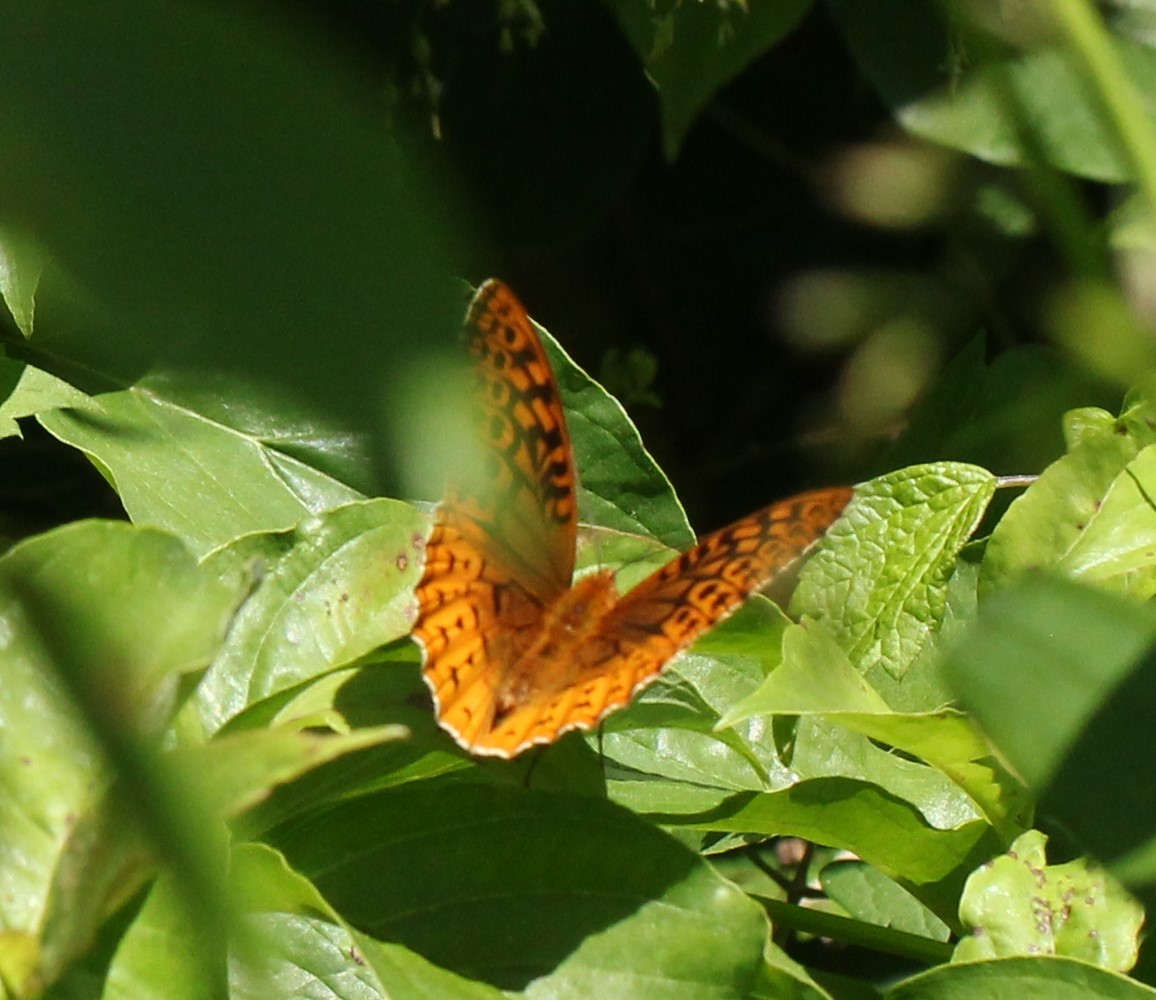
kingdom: Animalia
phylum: Arthropoda
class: Insecta
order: Lepidoptera
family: Nymphalidae
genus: Speyeria
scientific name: Speyeria cybele
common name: Great spangled fritillary
